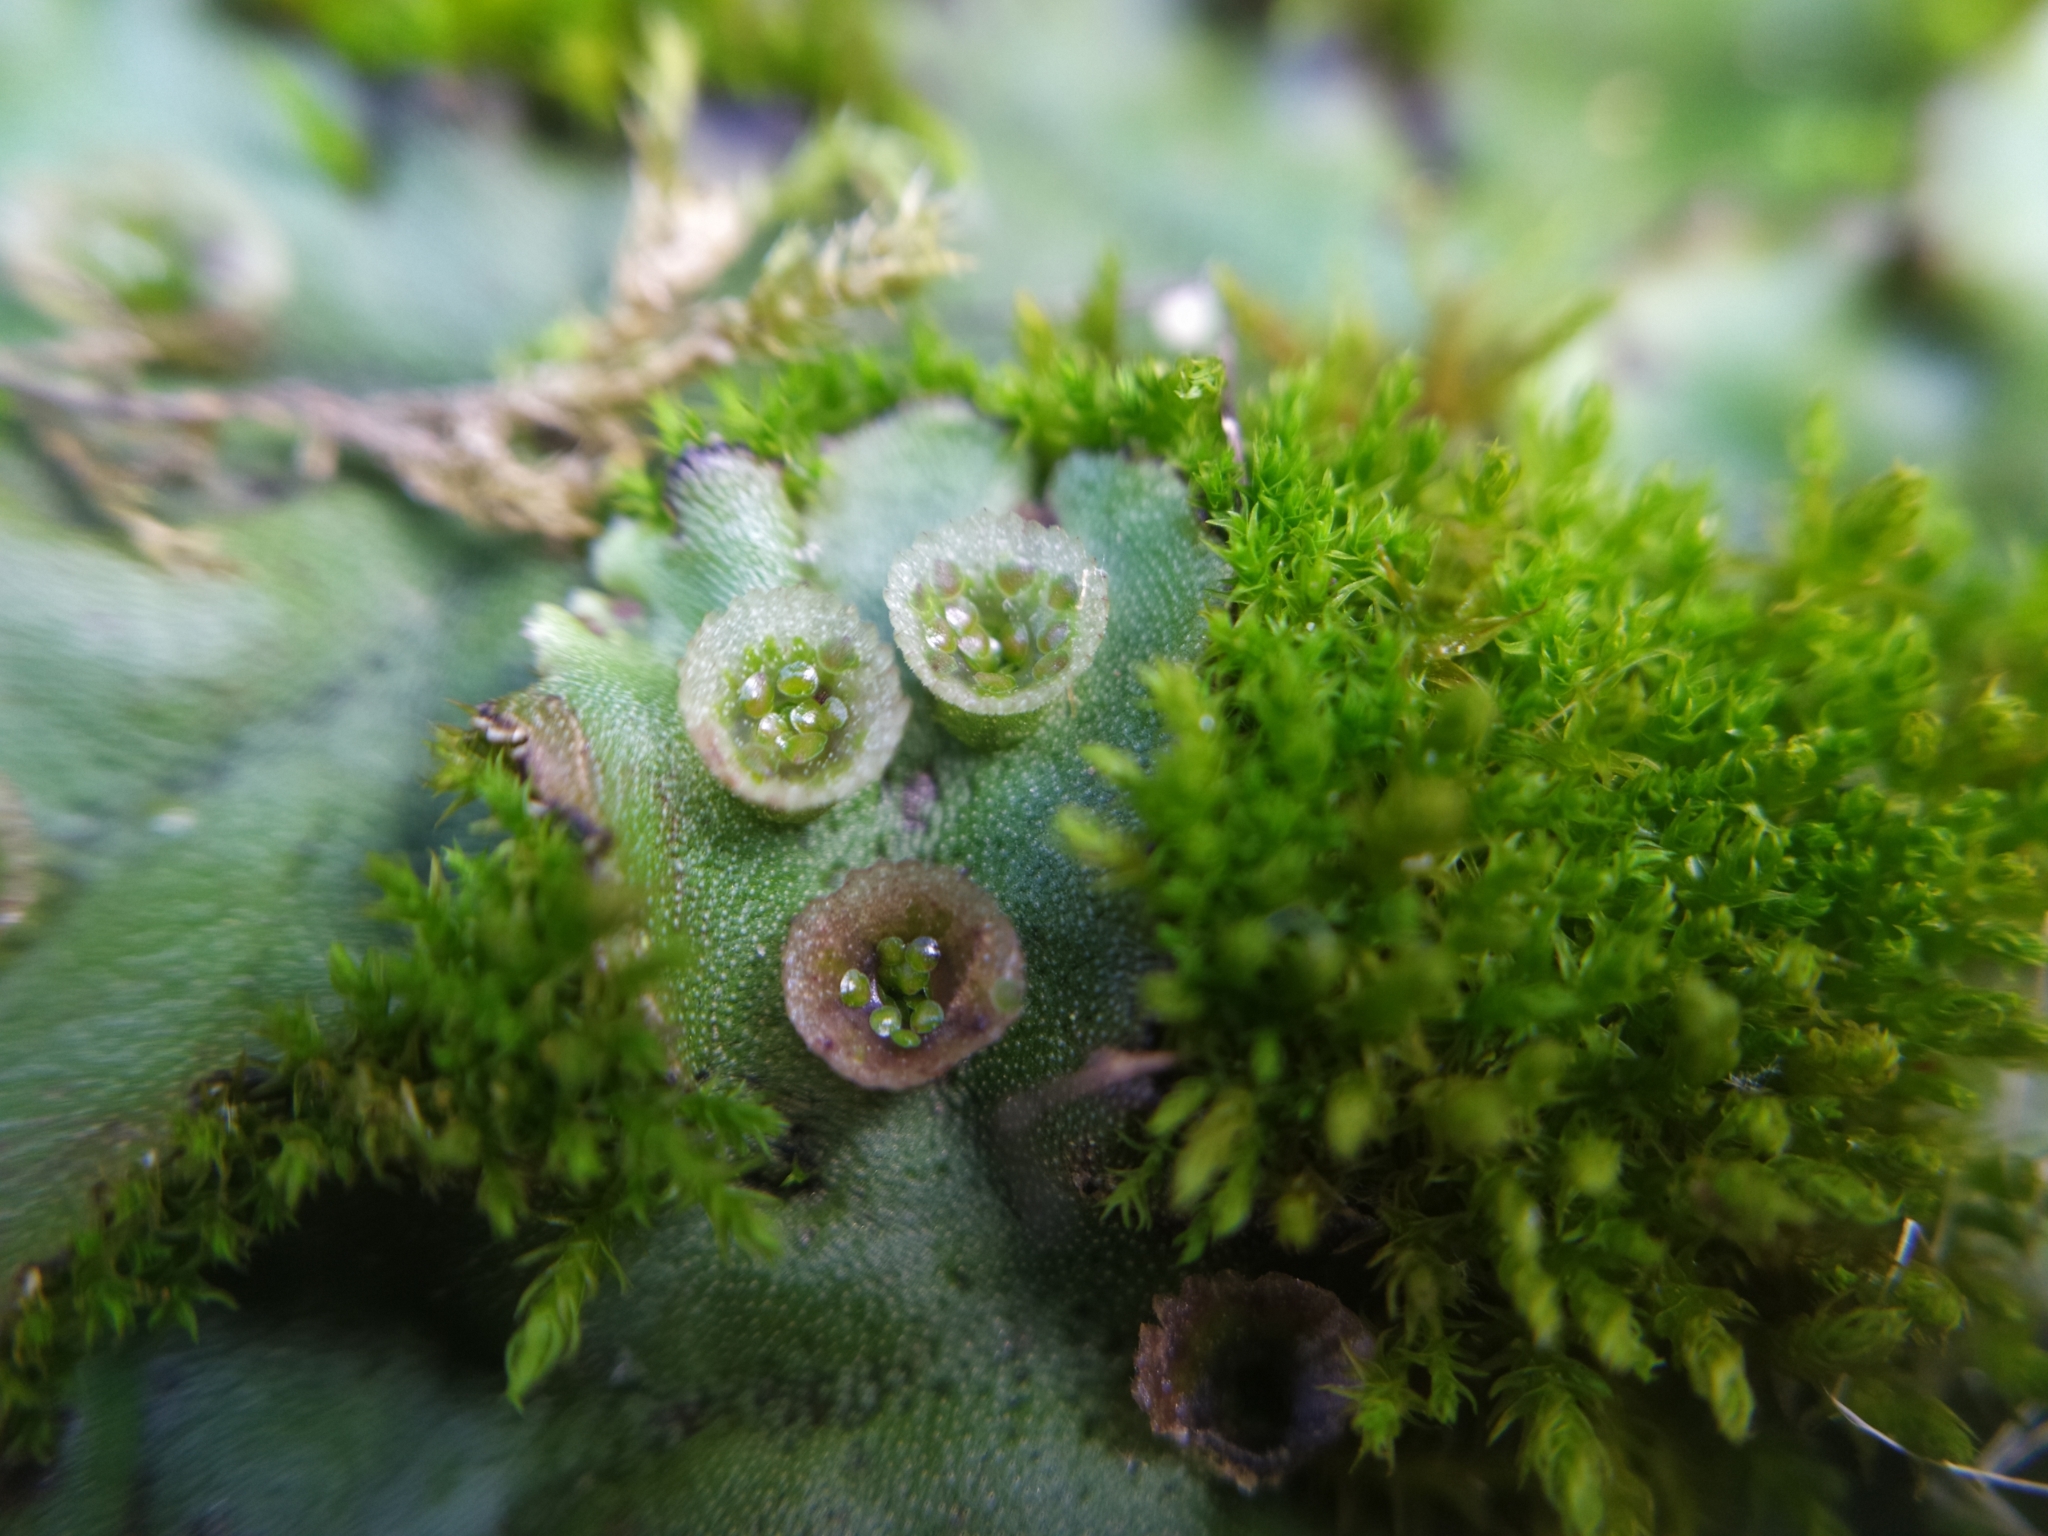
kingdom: Plantae
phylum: Marchantiophyta
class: Marchantiopsida
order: Marchantiales
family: Marchantiaceae
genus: Marchantia
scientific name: Marchantia polymorpha
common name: Common liverwort
